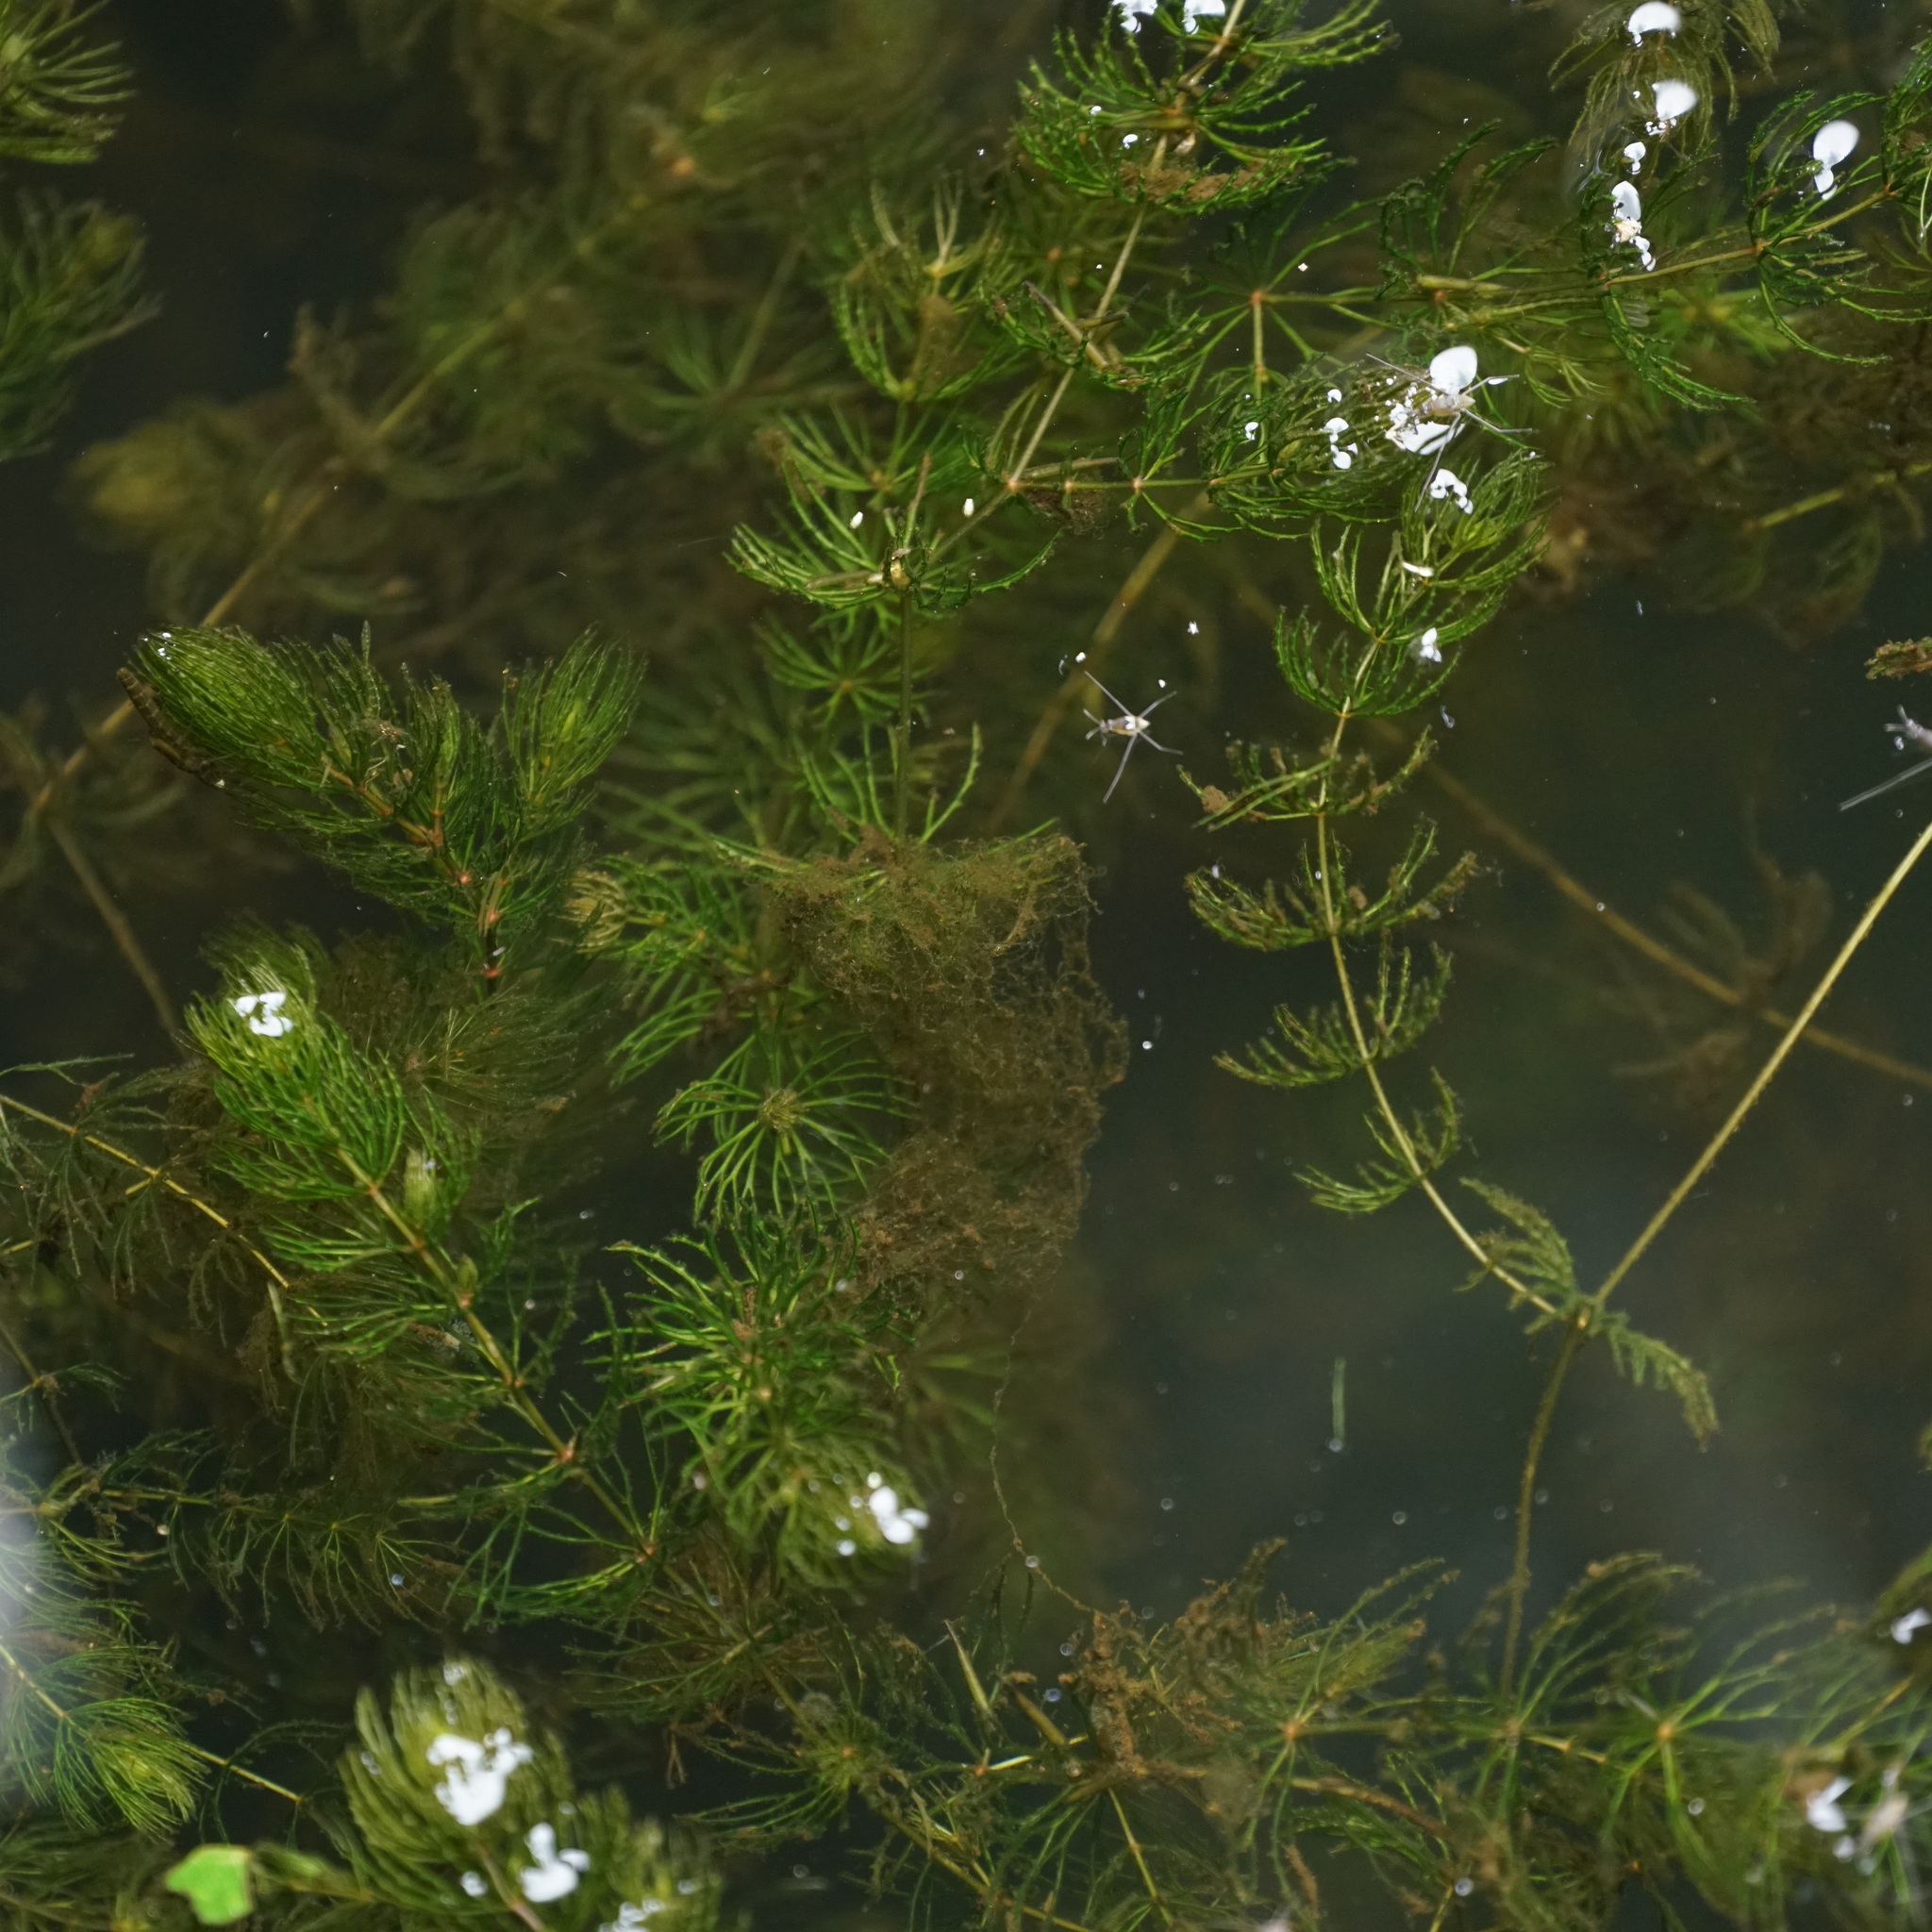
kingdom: Plantae
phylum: Tracheophyta
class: Magnoliopsida
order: Ceratophyllales
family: Ceratophyllaceae
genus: Ceratophyllum
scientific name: Ceratophyllum demersum
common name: Rigid hornwort
